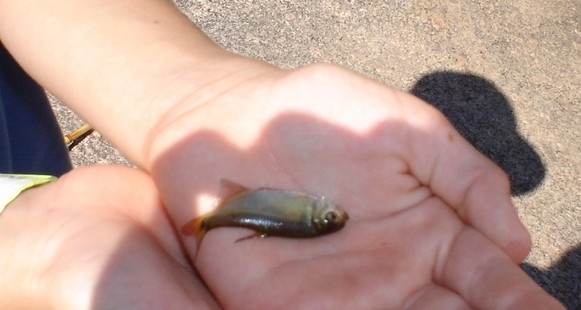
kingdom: Animalia
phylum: Chordata
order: Characiformes
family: Characidae
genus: Astyanax
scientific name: Astyanax eigenmanniorum
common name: Tetra
